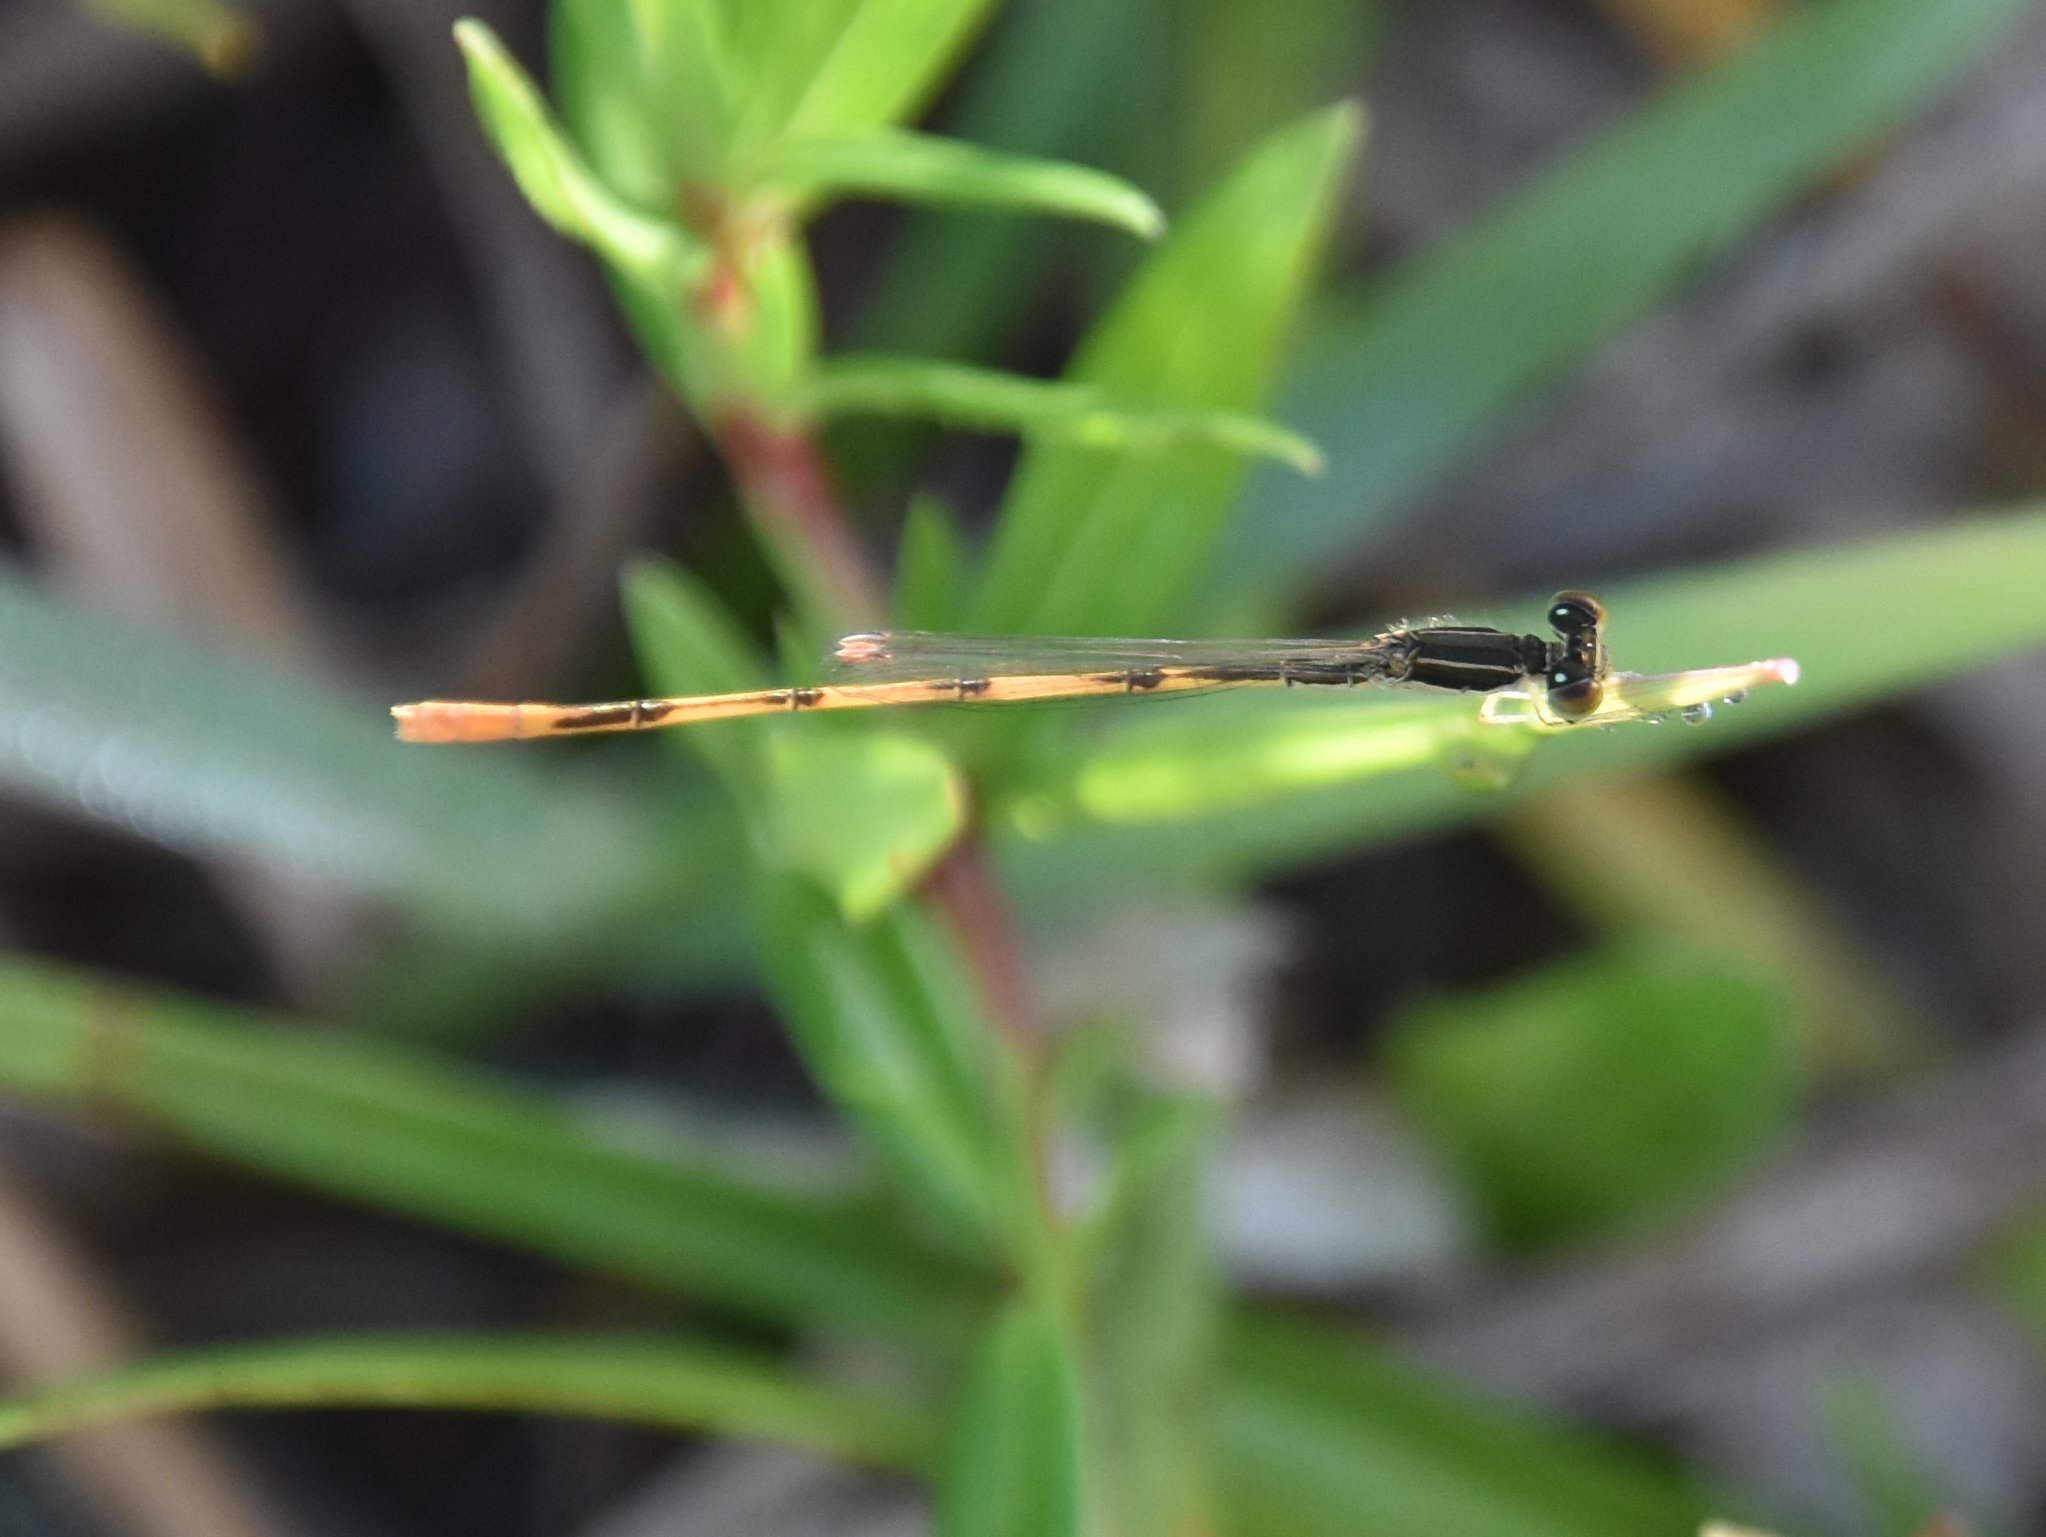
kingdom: Animalia
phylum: Arthropoda
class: Insecta
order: Odonata
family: Coenagrionidae
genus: Ischnura
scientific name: Ischnura hastata
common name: Citrine forktail
